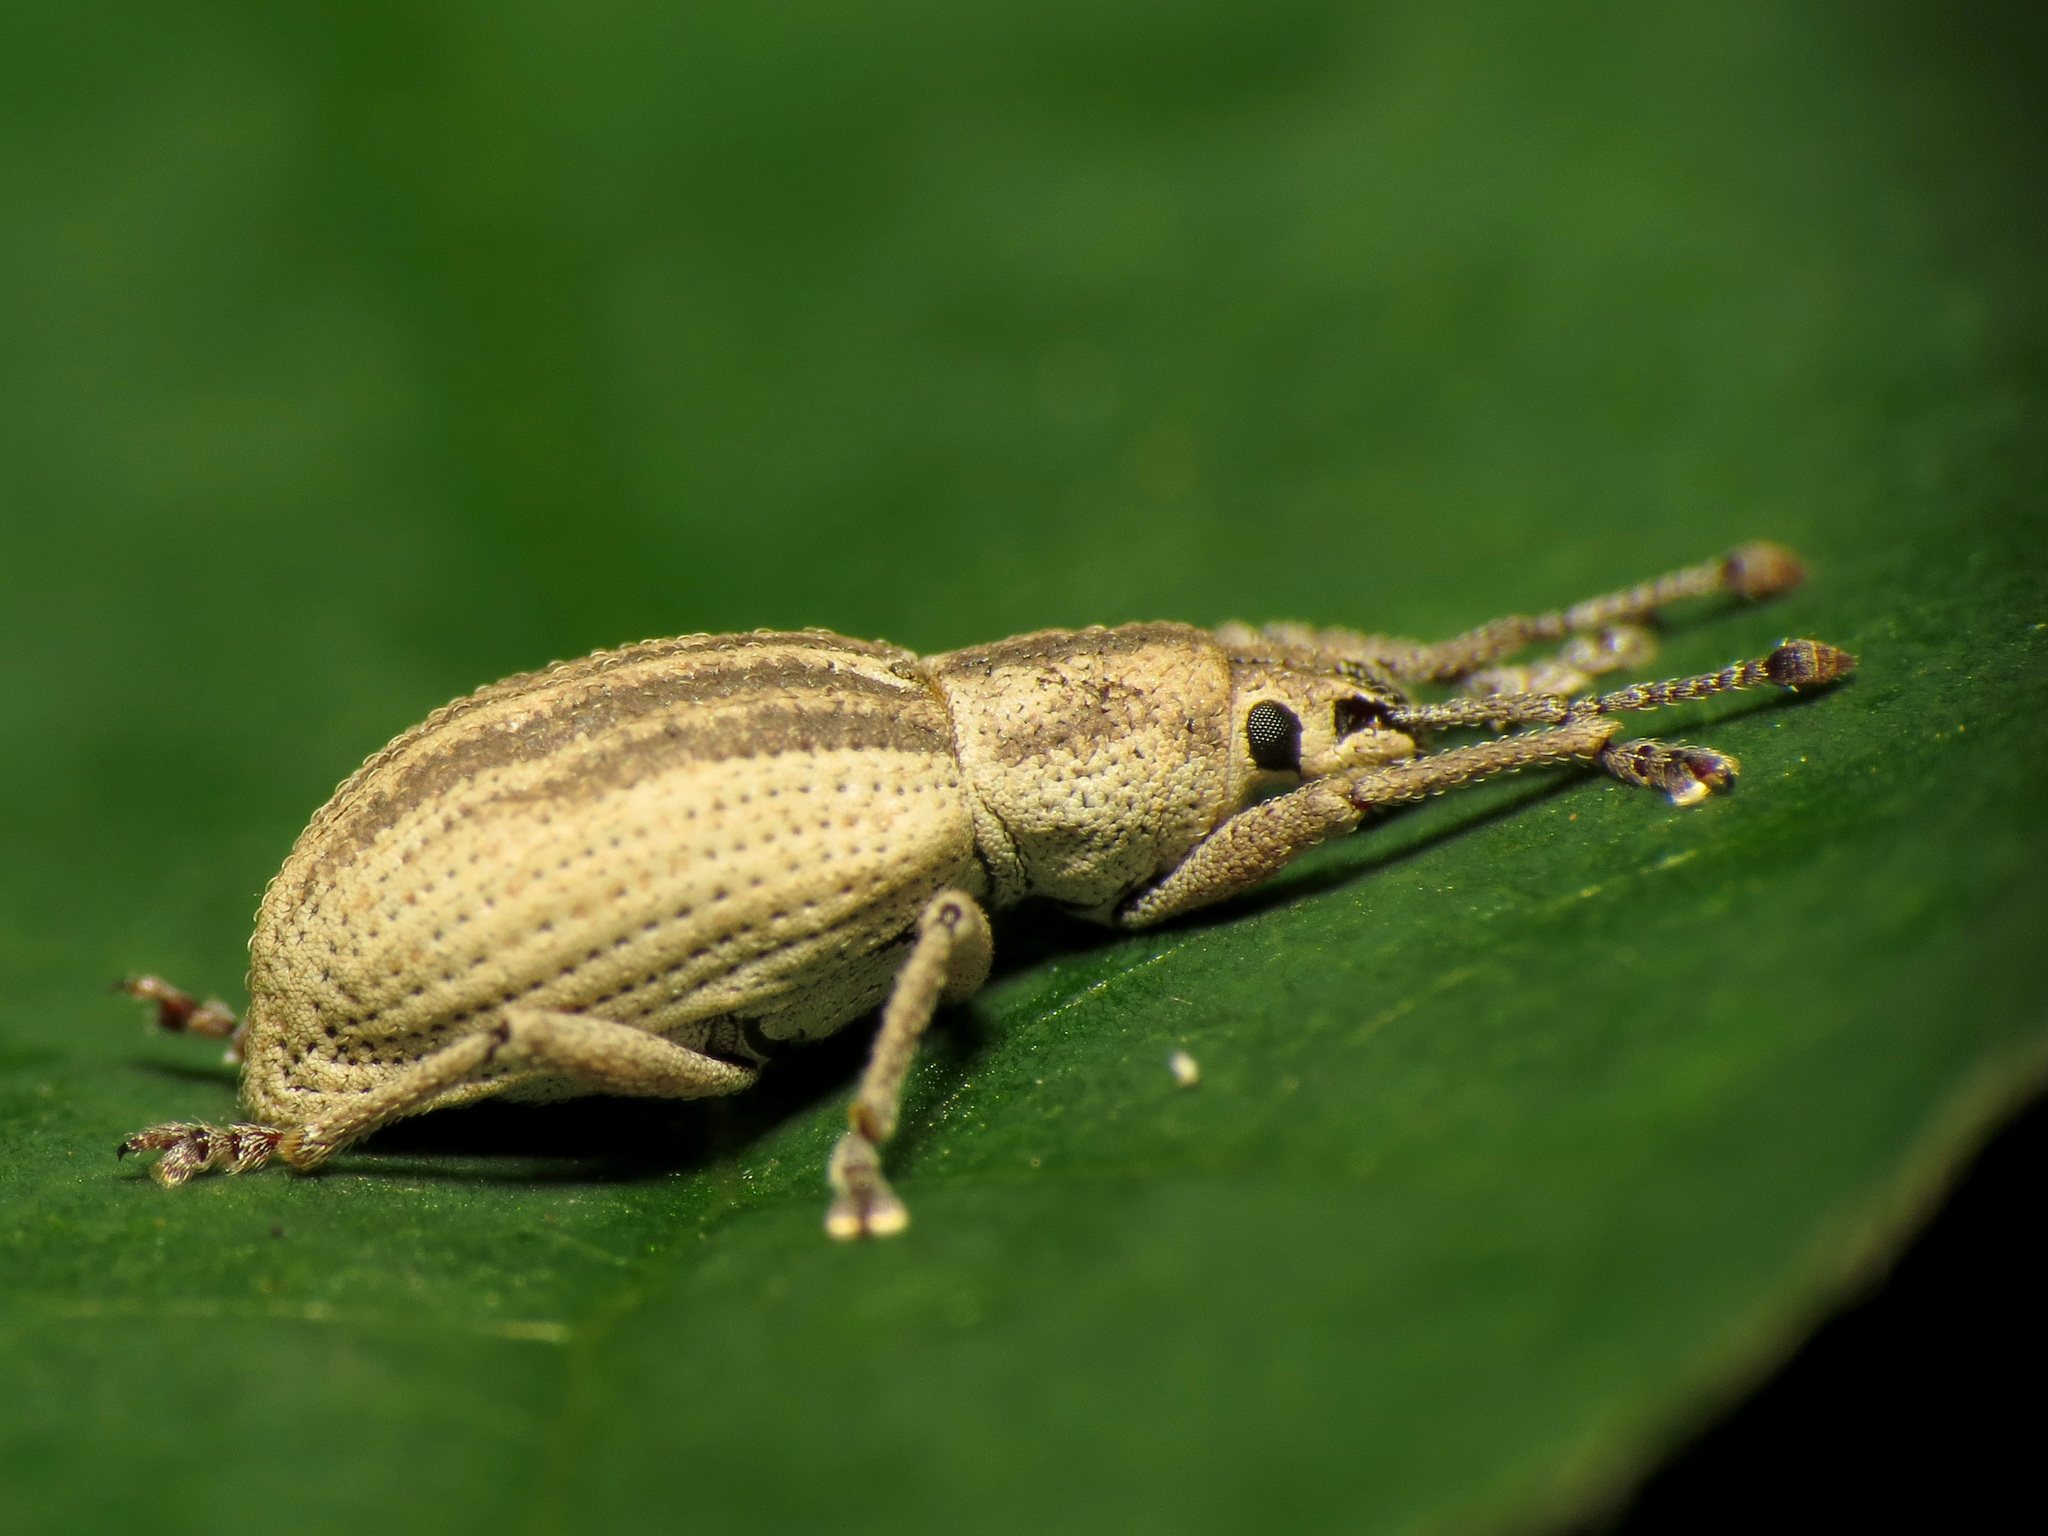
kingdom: Animalia
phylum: Arthropoda
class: Insecta
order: Coleoptera
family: Curculionidae
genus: Aphrastus
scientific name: Aphrastus taeniatus
